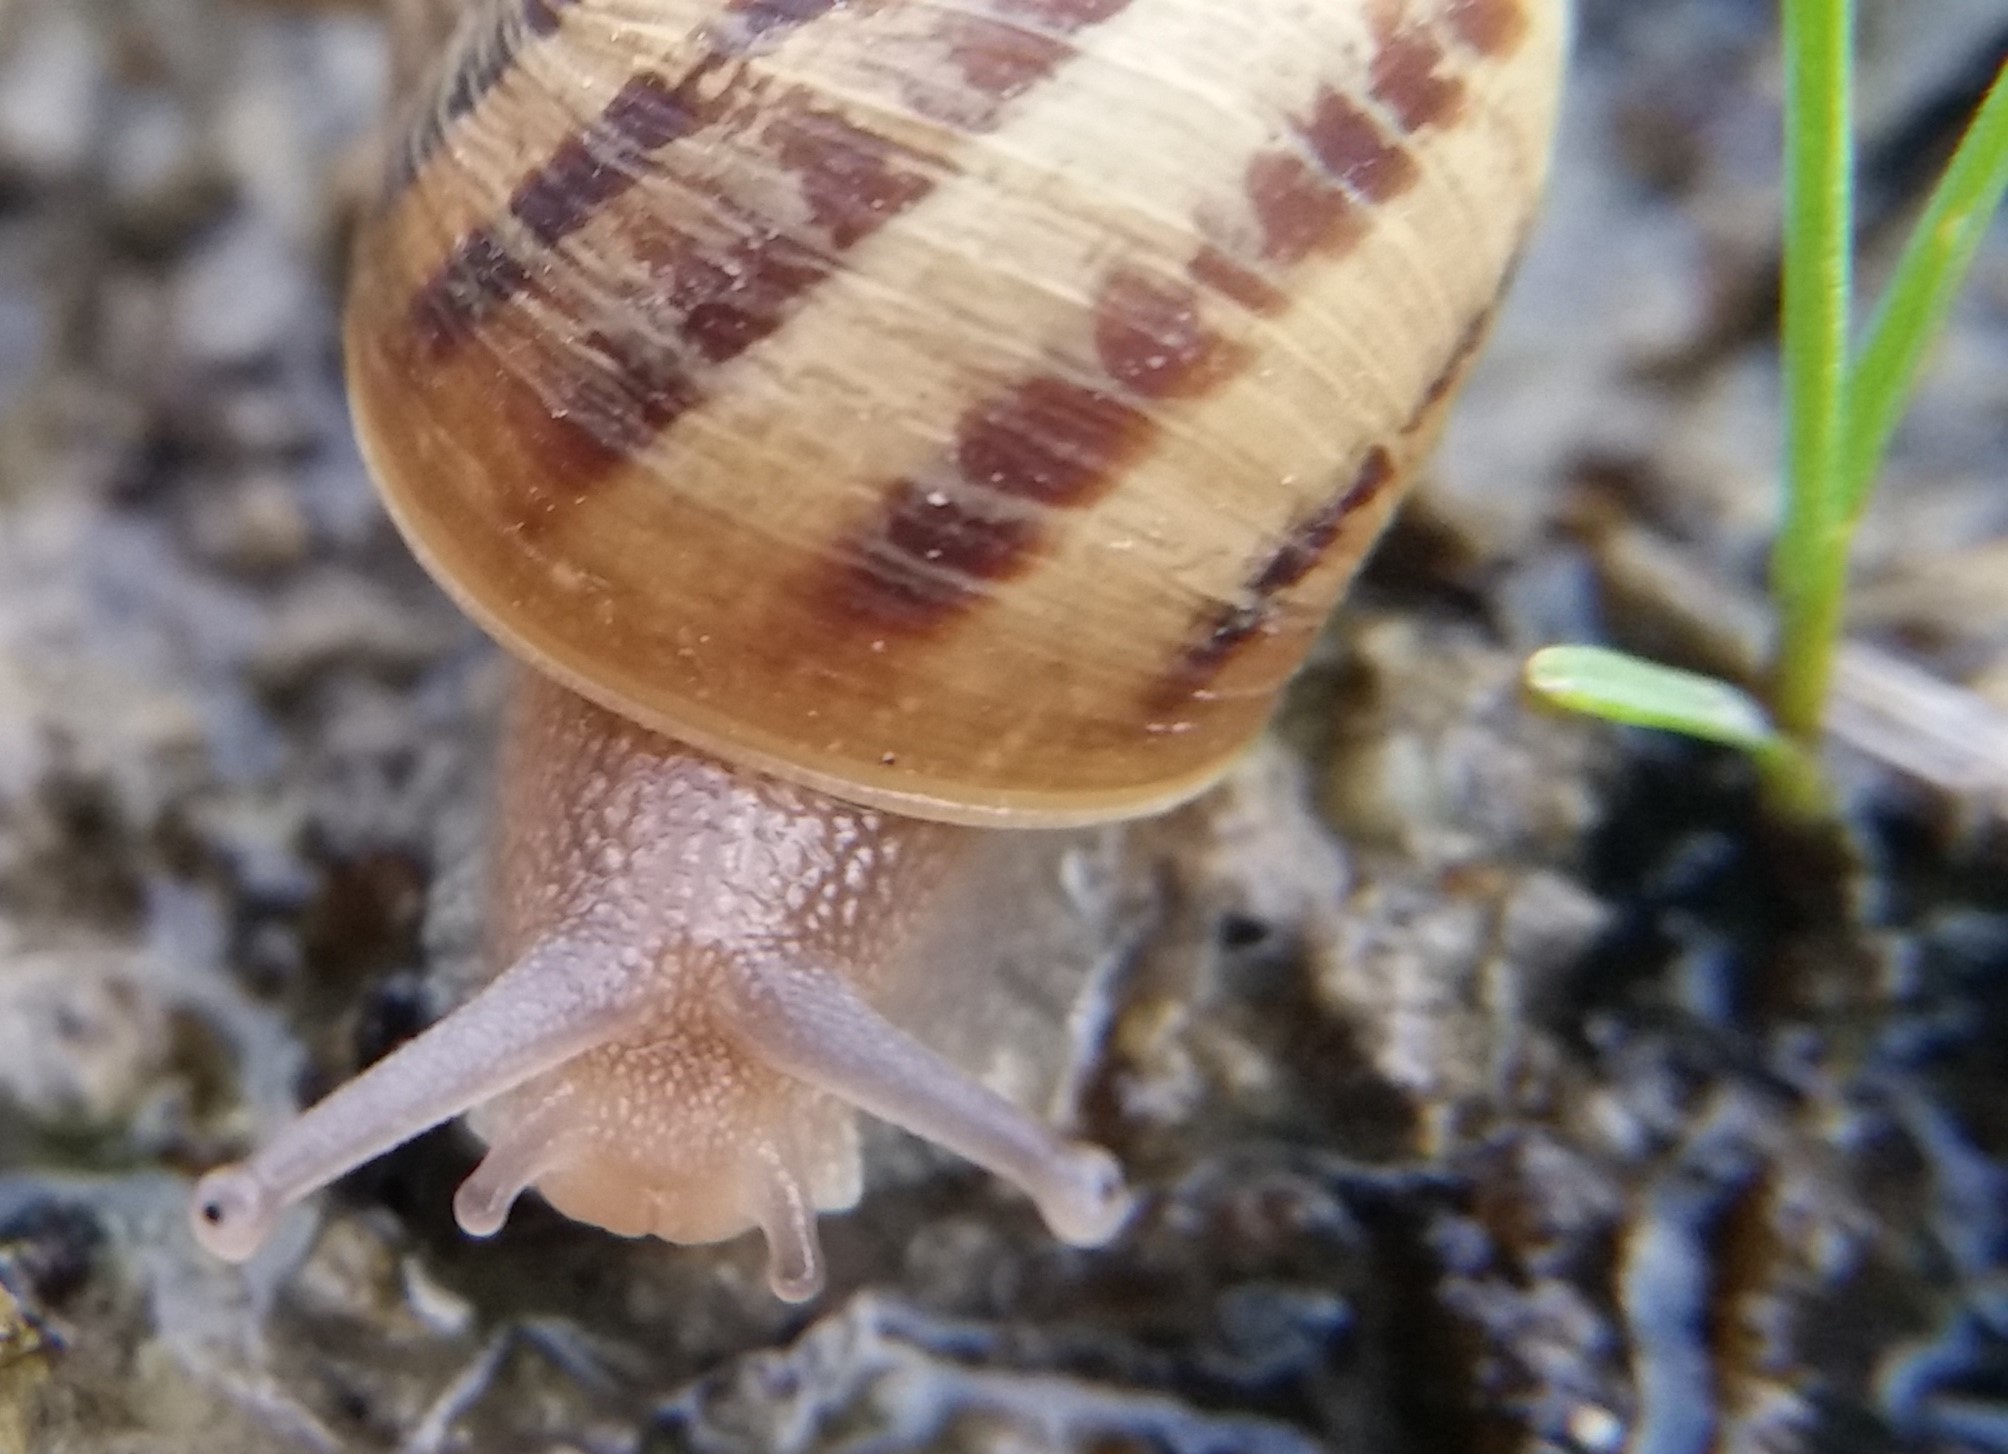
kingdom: Animalia
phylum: Mollusca
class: Gastropoda
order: Stylommatophora
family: Helicidae
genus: Cornu
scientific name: Cornu aspersum
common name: Brown garden snail
